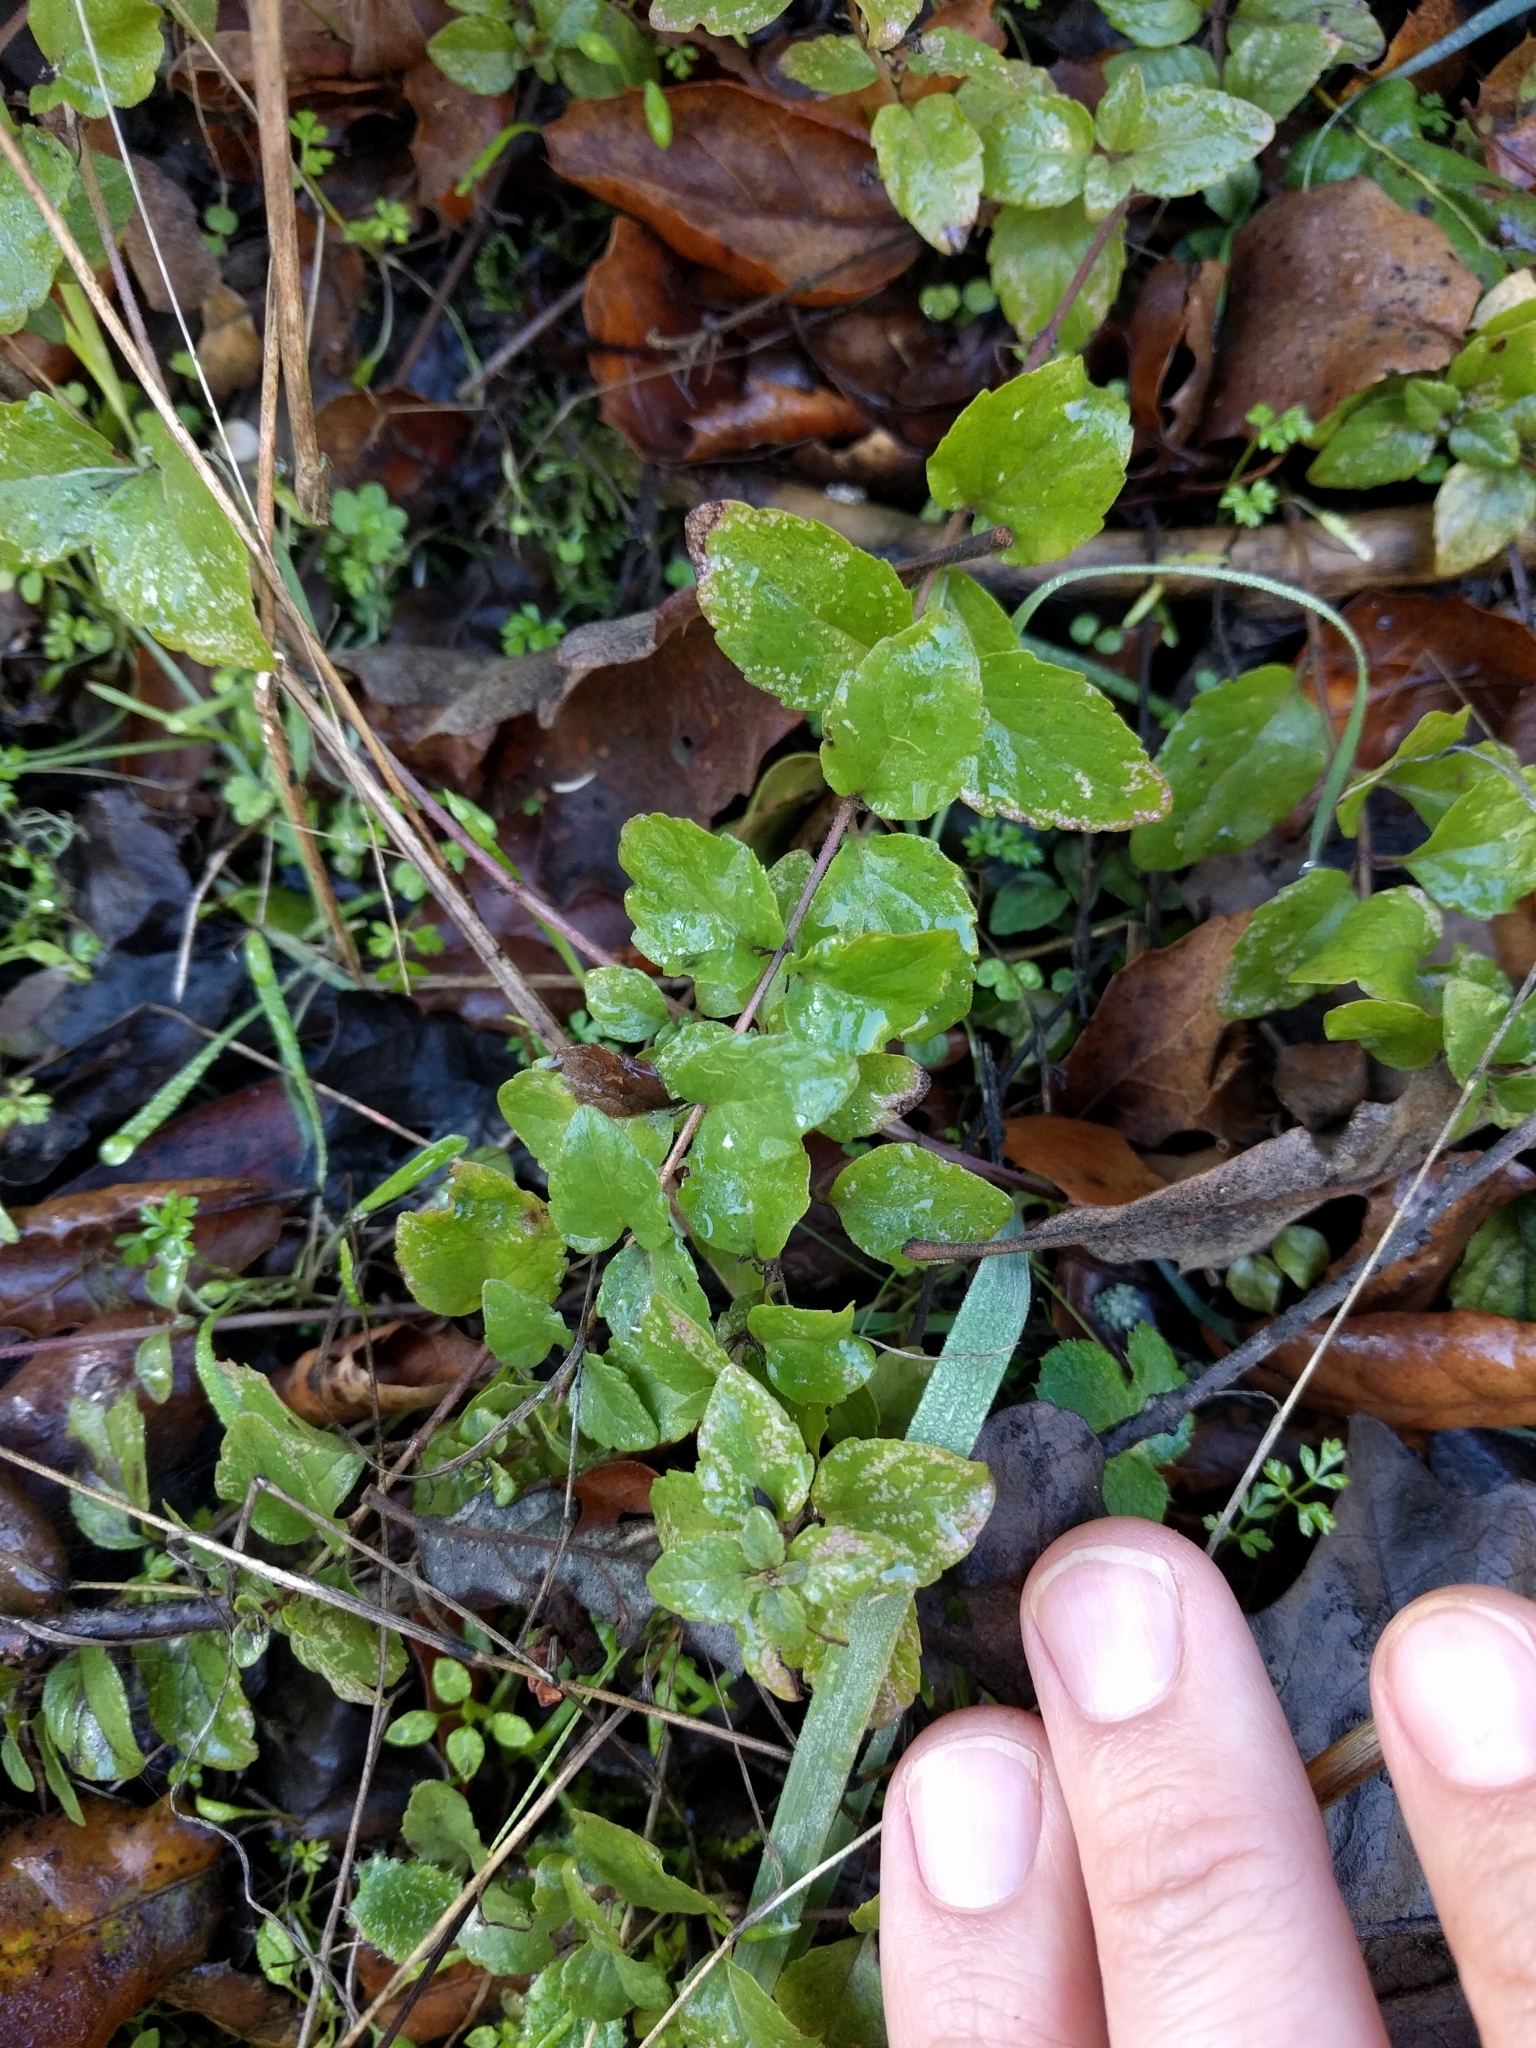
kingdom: Plantae
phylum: Tracheophyta
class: Magnoliopsida
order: Lamiales
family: Lamiaceae
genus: Micromeria
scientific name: Micromeria douglasii
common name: Yerba buena
